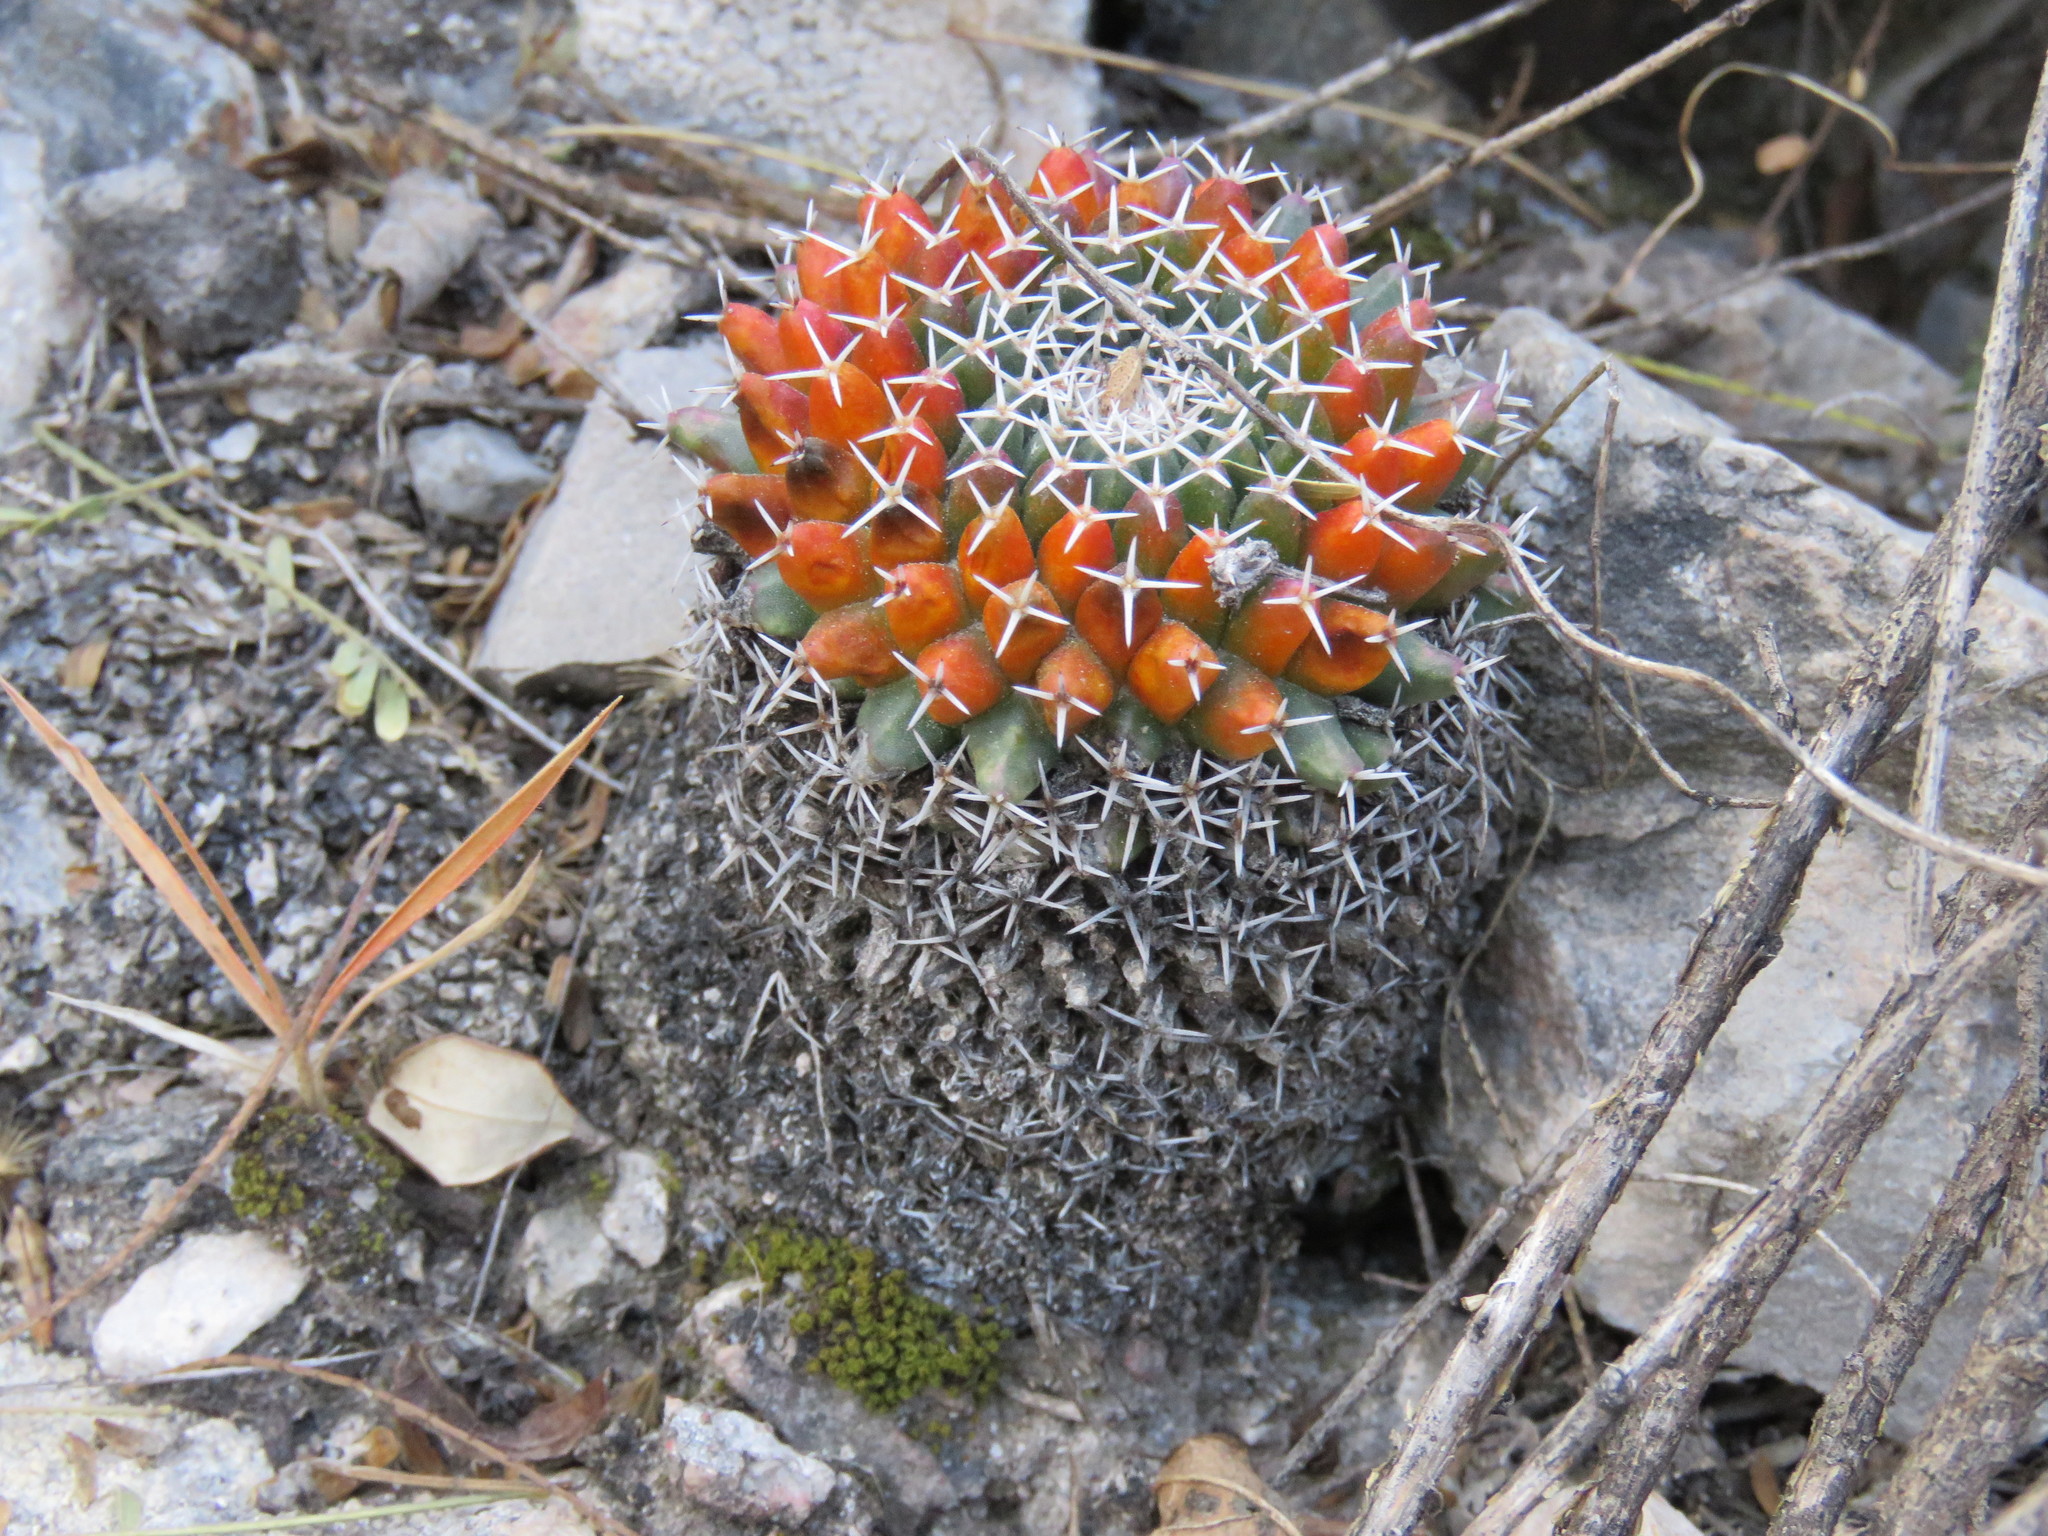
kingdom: Plantae
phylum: Tracheophyta
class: Magnoliopsida
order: Caryophyllales
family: Cactaceae
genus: Mammillaria
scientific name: Mammillaria
